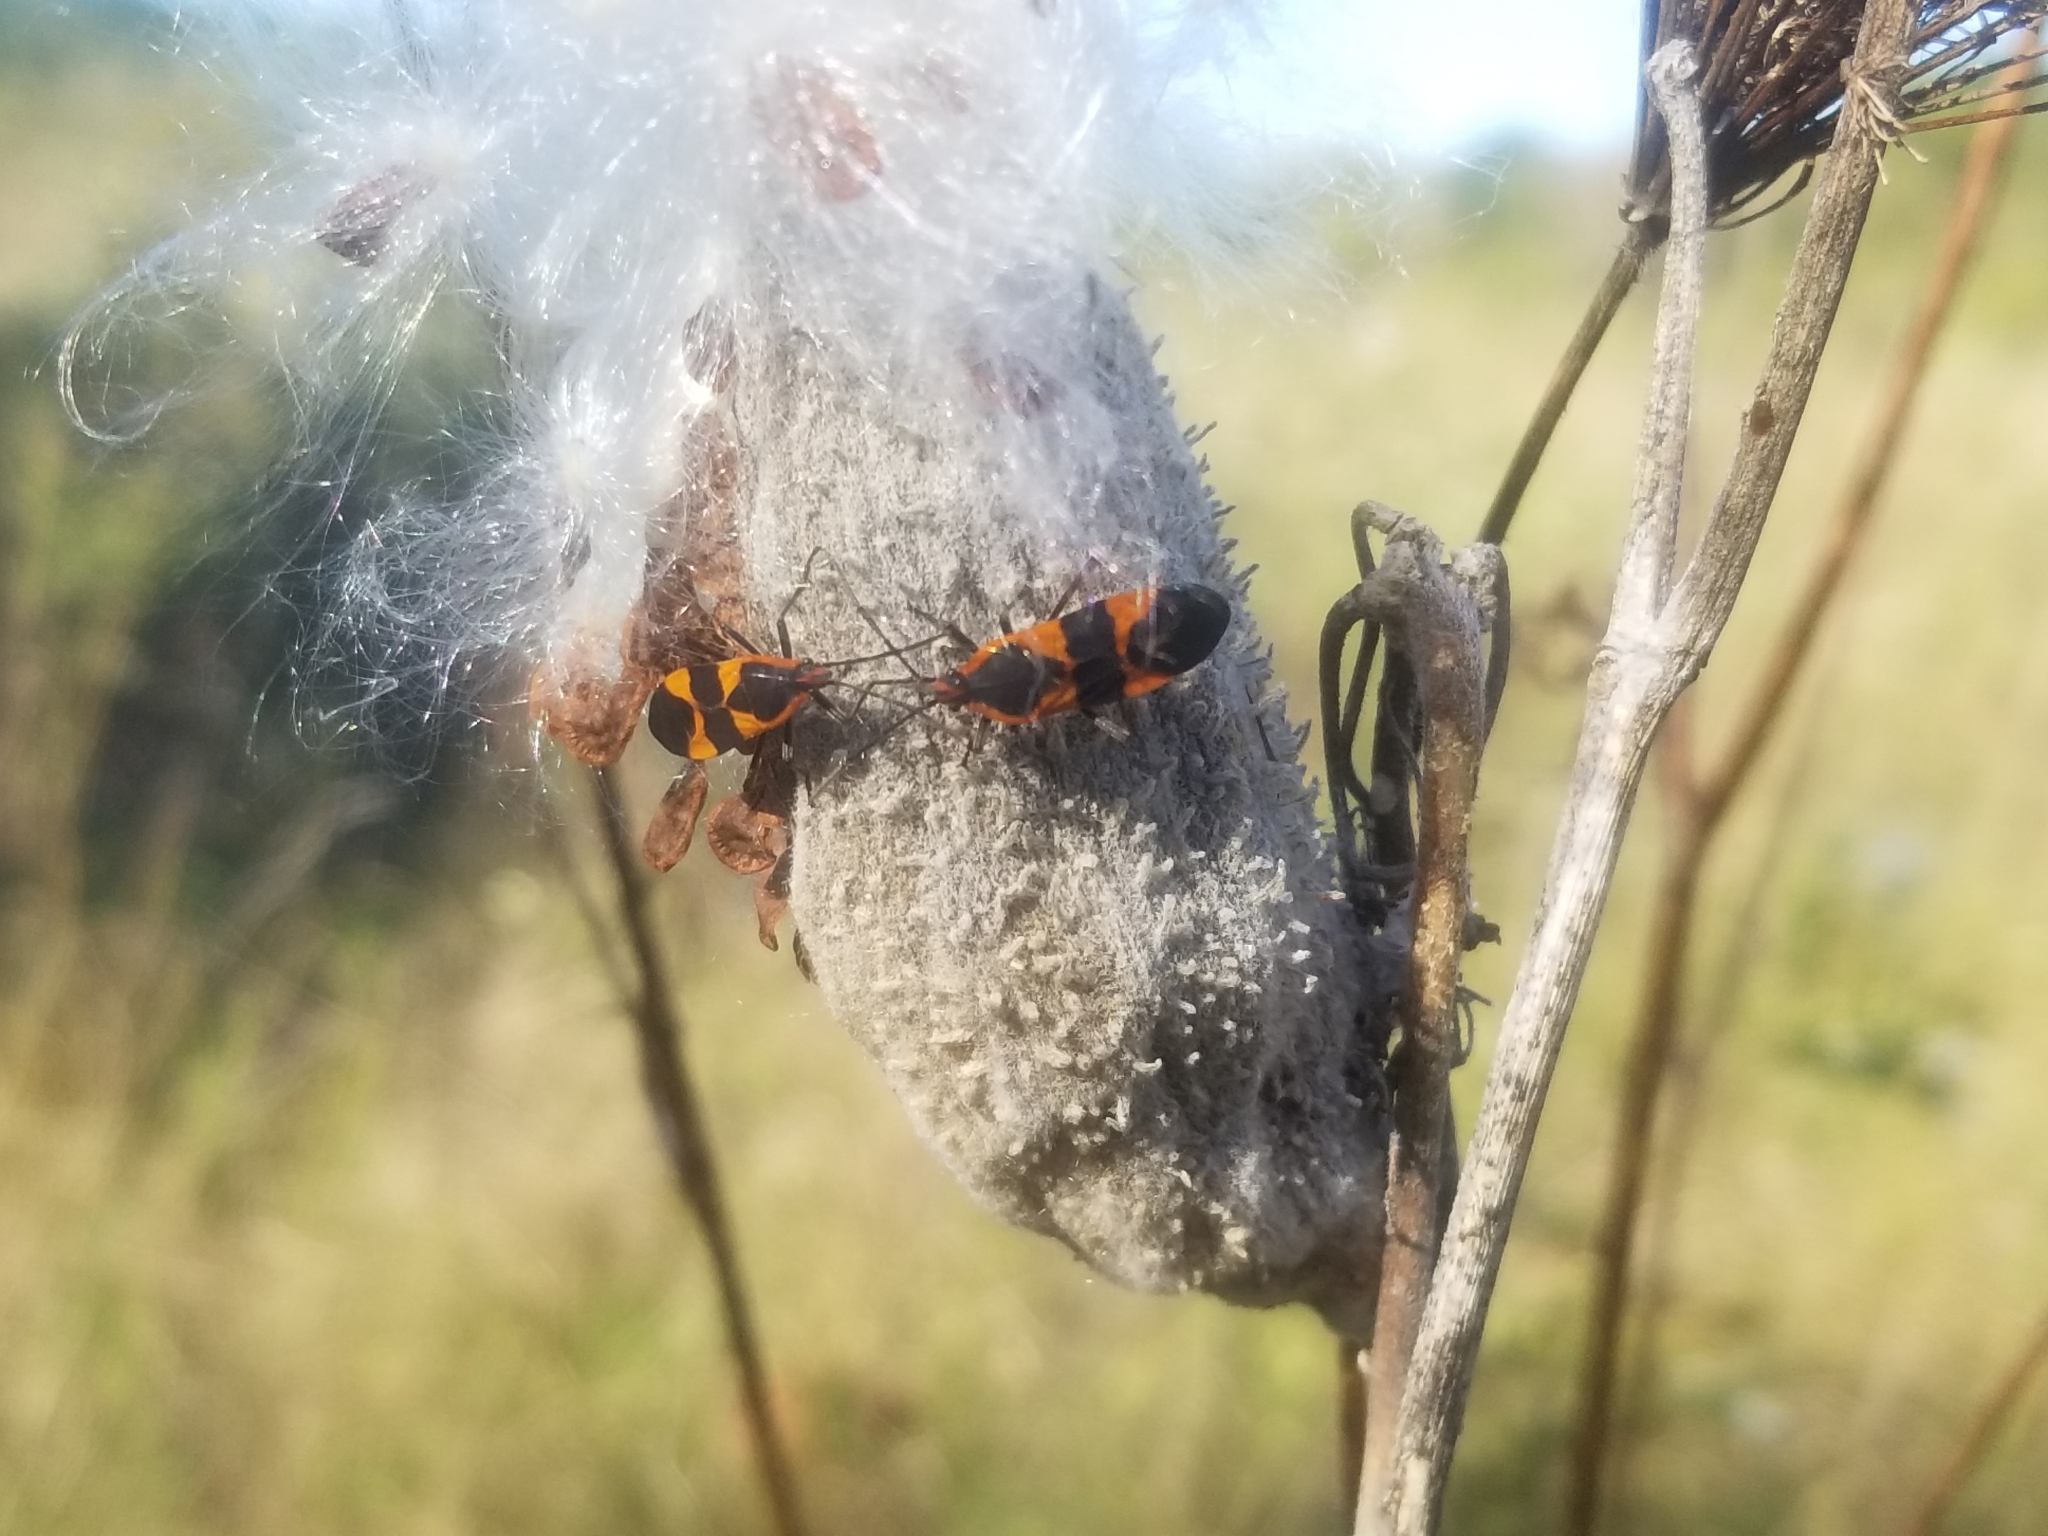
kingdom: Animalia
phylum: Arthropoda
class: Insecta
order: Hemiptera
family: Lygaeidae
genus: Oncopeltus
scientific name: Oncopeltus fasciatus
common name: Large milkweed bug
